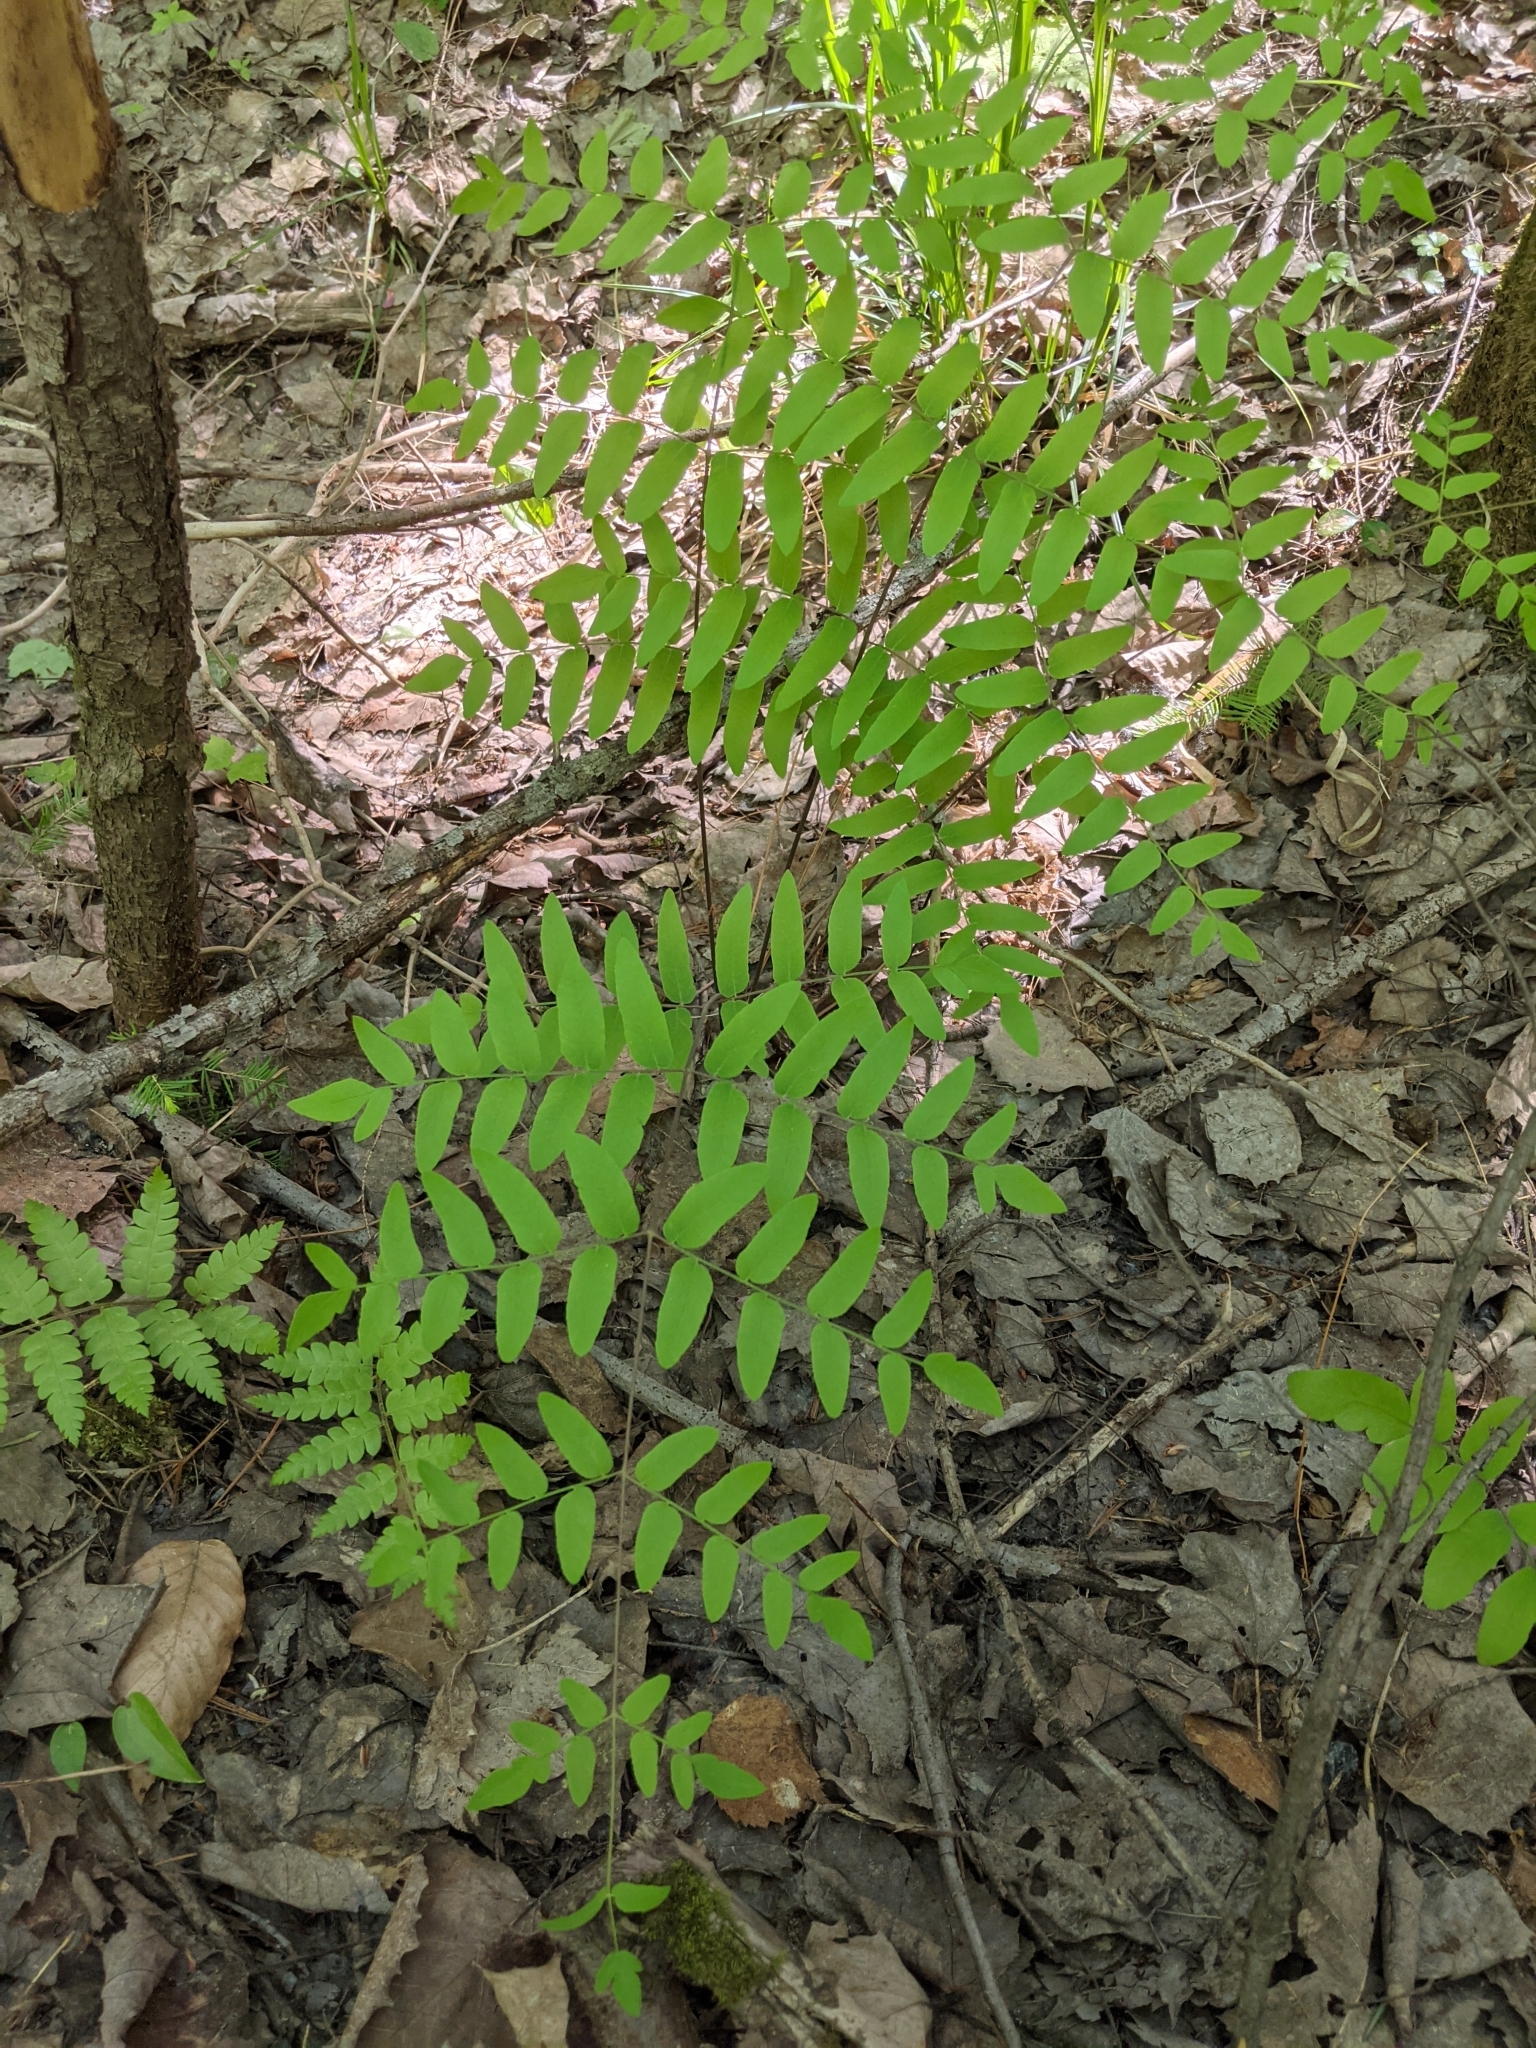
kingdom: Plantae
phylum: Tracheophyta
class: Polypodiopsida
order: Osmundales
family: Osmundaceae
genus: Osmunda
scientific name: Osmunda spectabilis
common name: American royal fern
